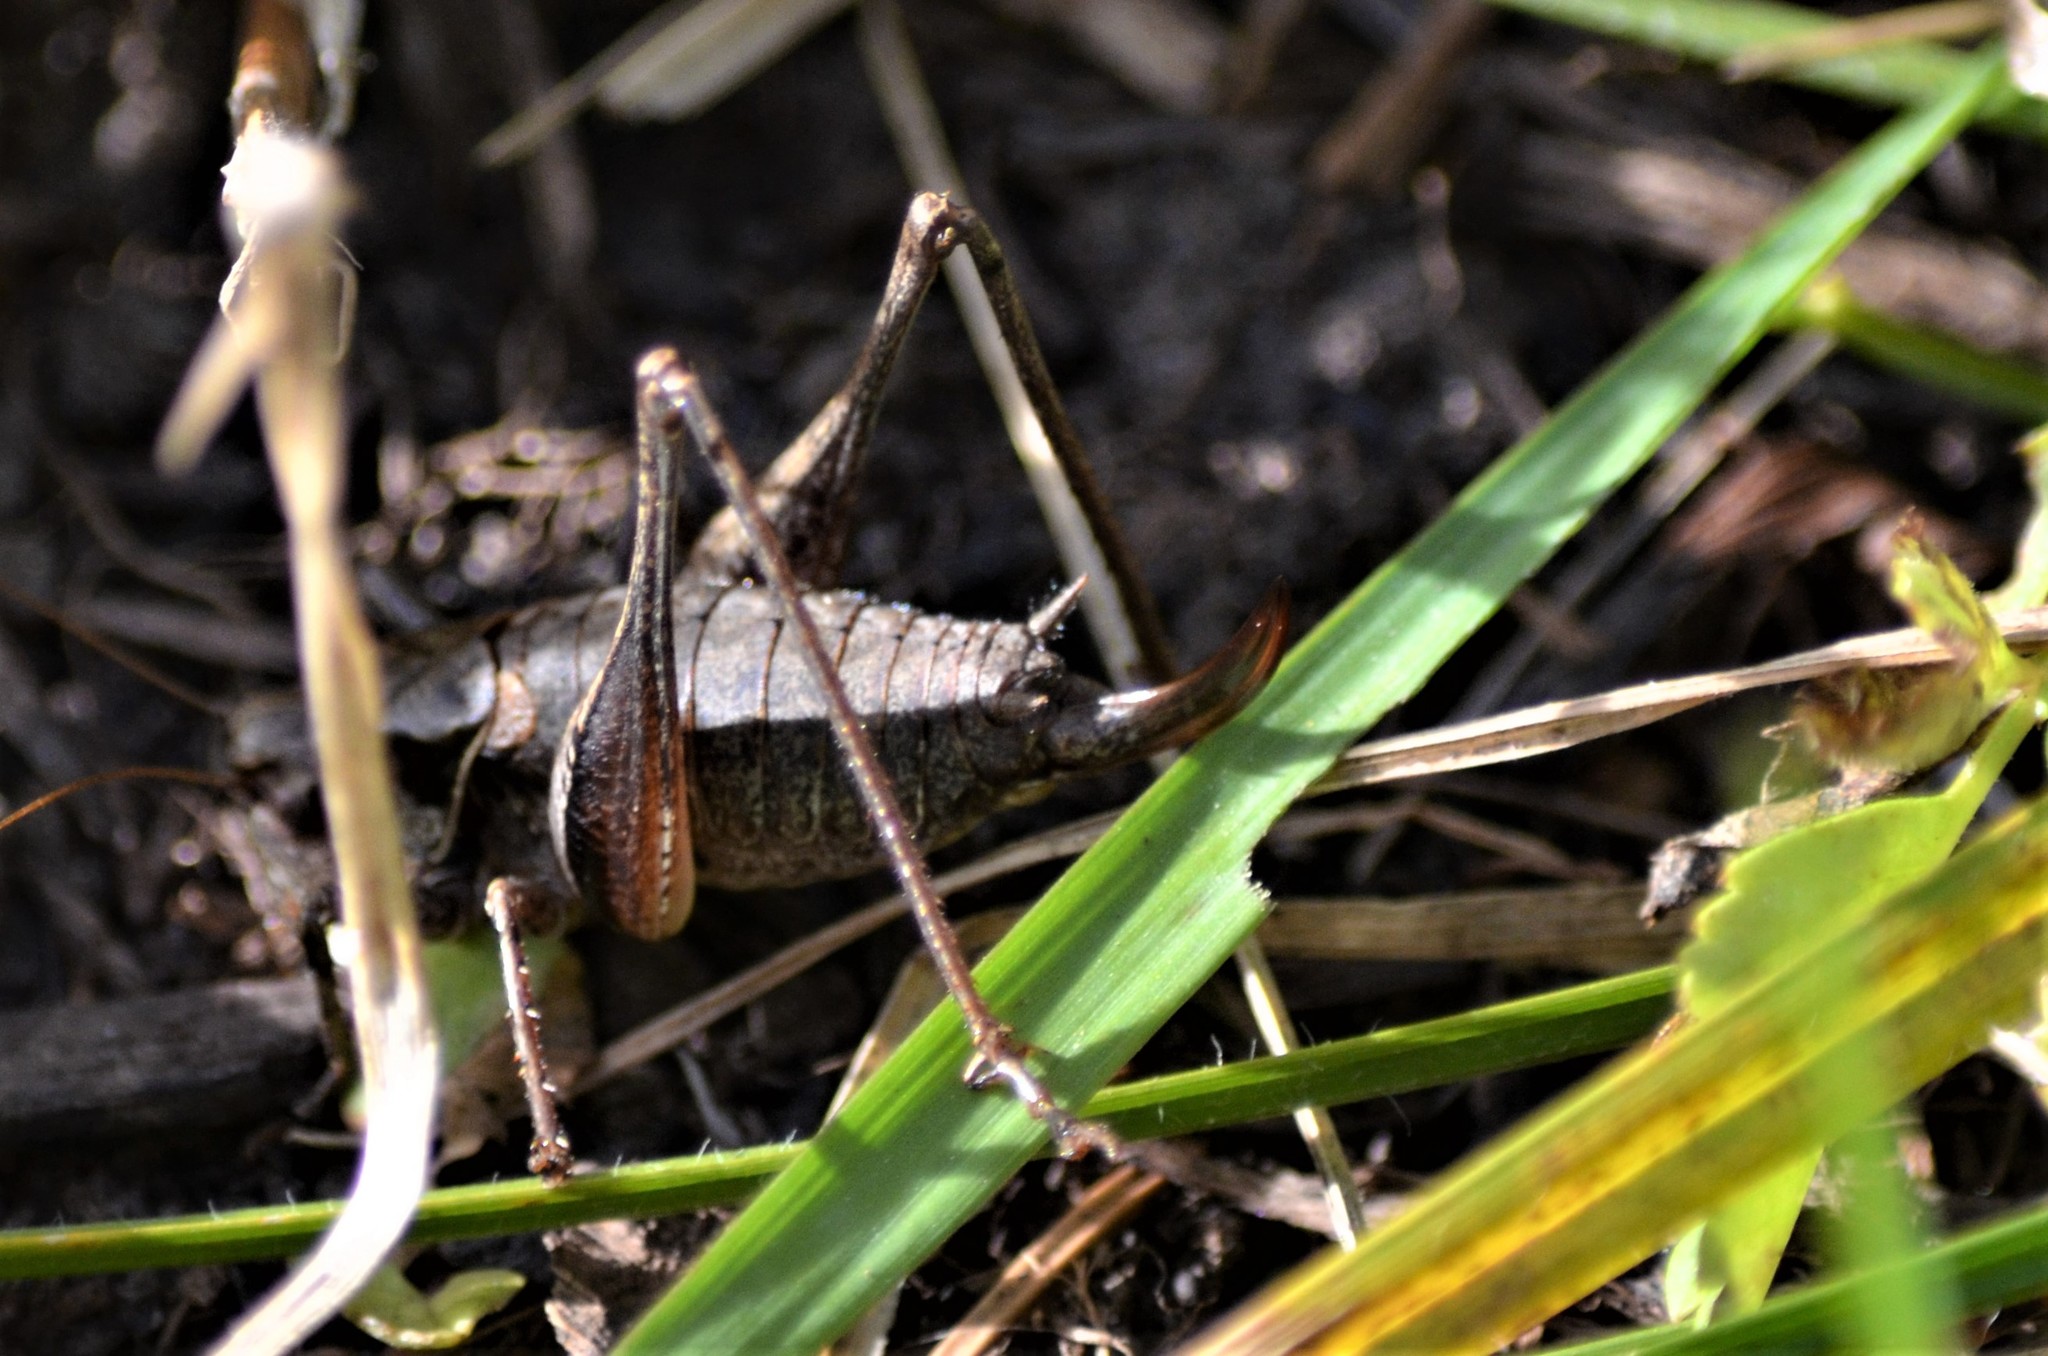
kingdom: Animalia
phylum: Arthropoda
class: Insecta
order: Orthoptera
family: Tettigoniidae
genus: Pholidoptera
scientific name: Pholidoptera griseoaptera
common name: Dark bush-cricket
